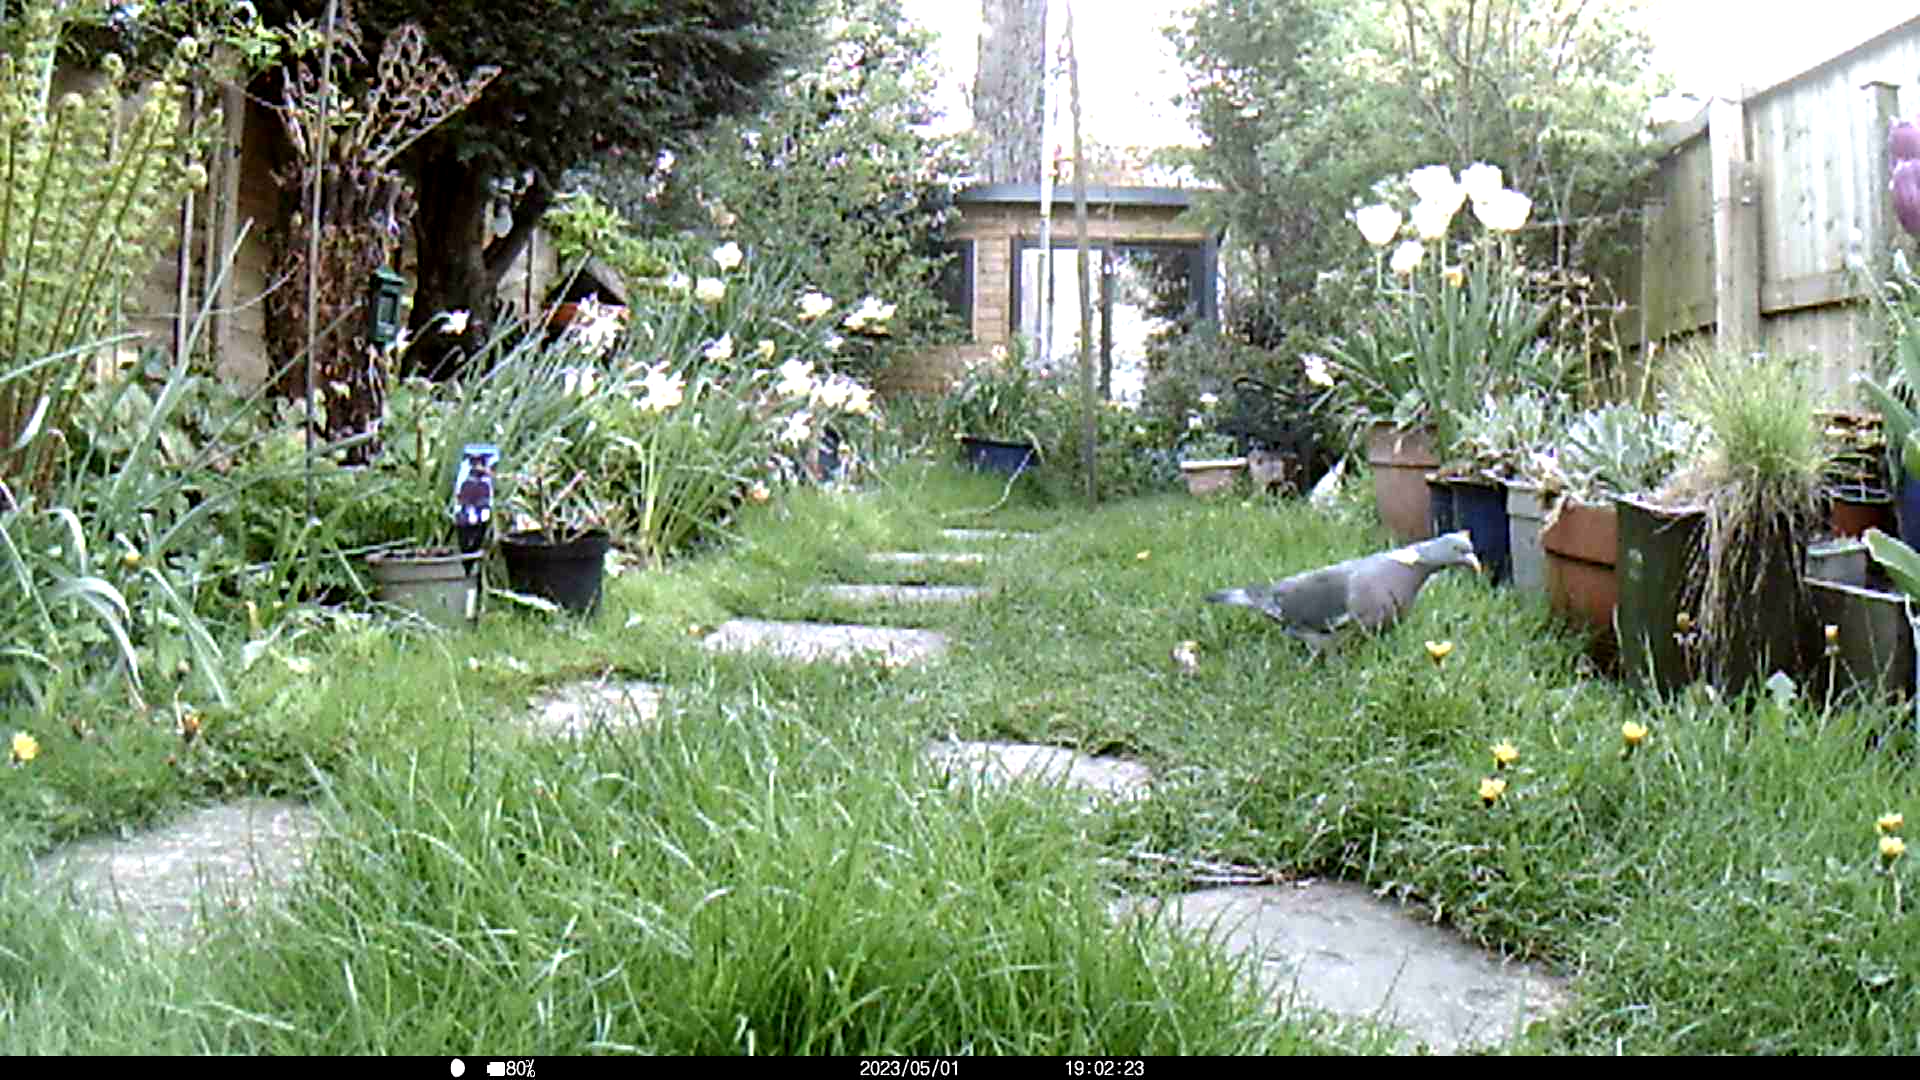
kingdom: Animalia
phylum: Chordata
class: Aves
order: Columbiformes
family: Columbidae
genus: Columba
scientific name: Columba palumbus
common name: Common wood pigeon
